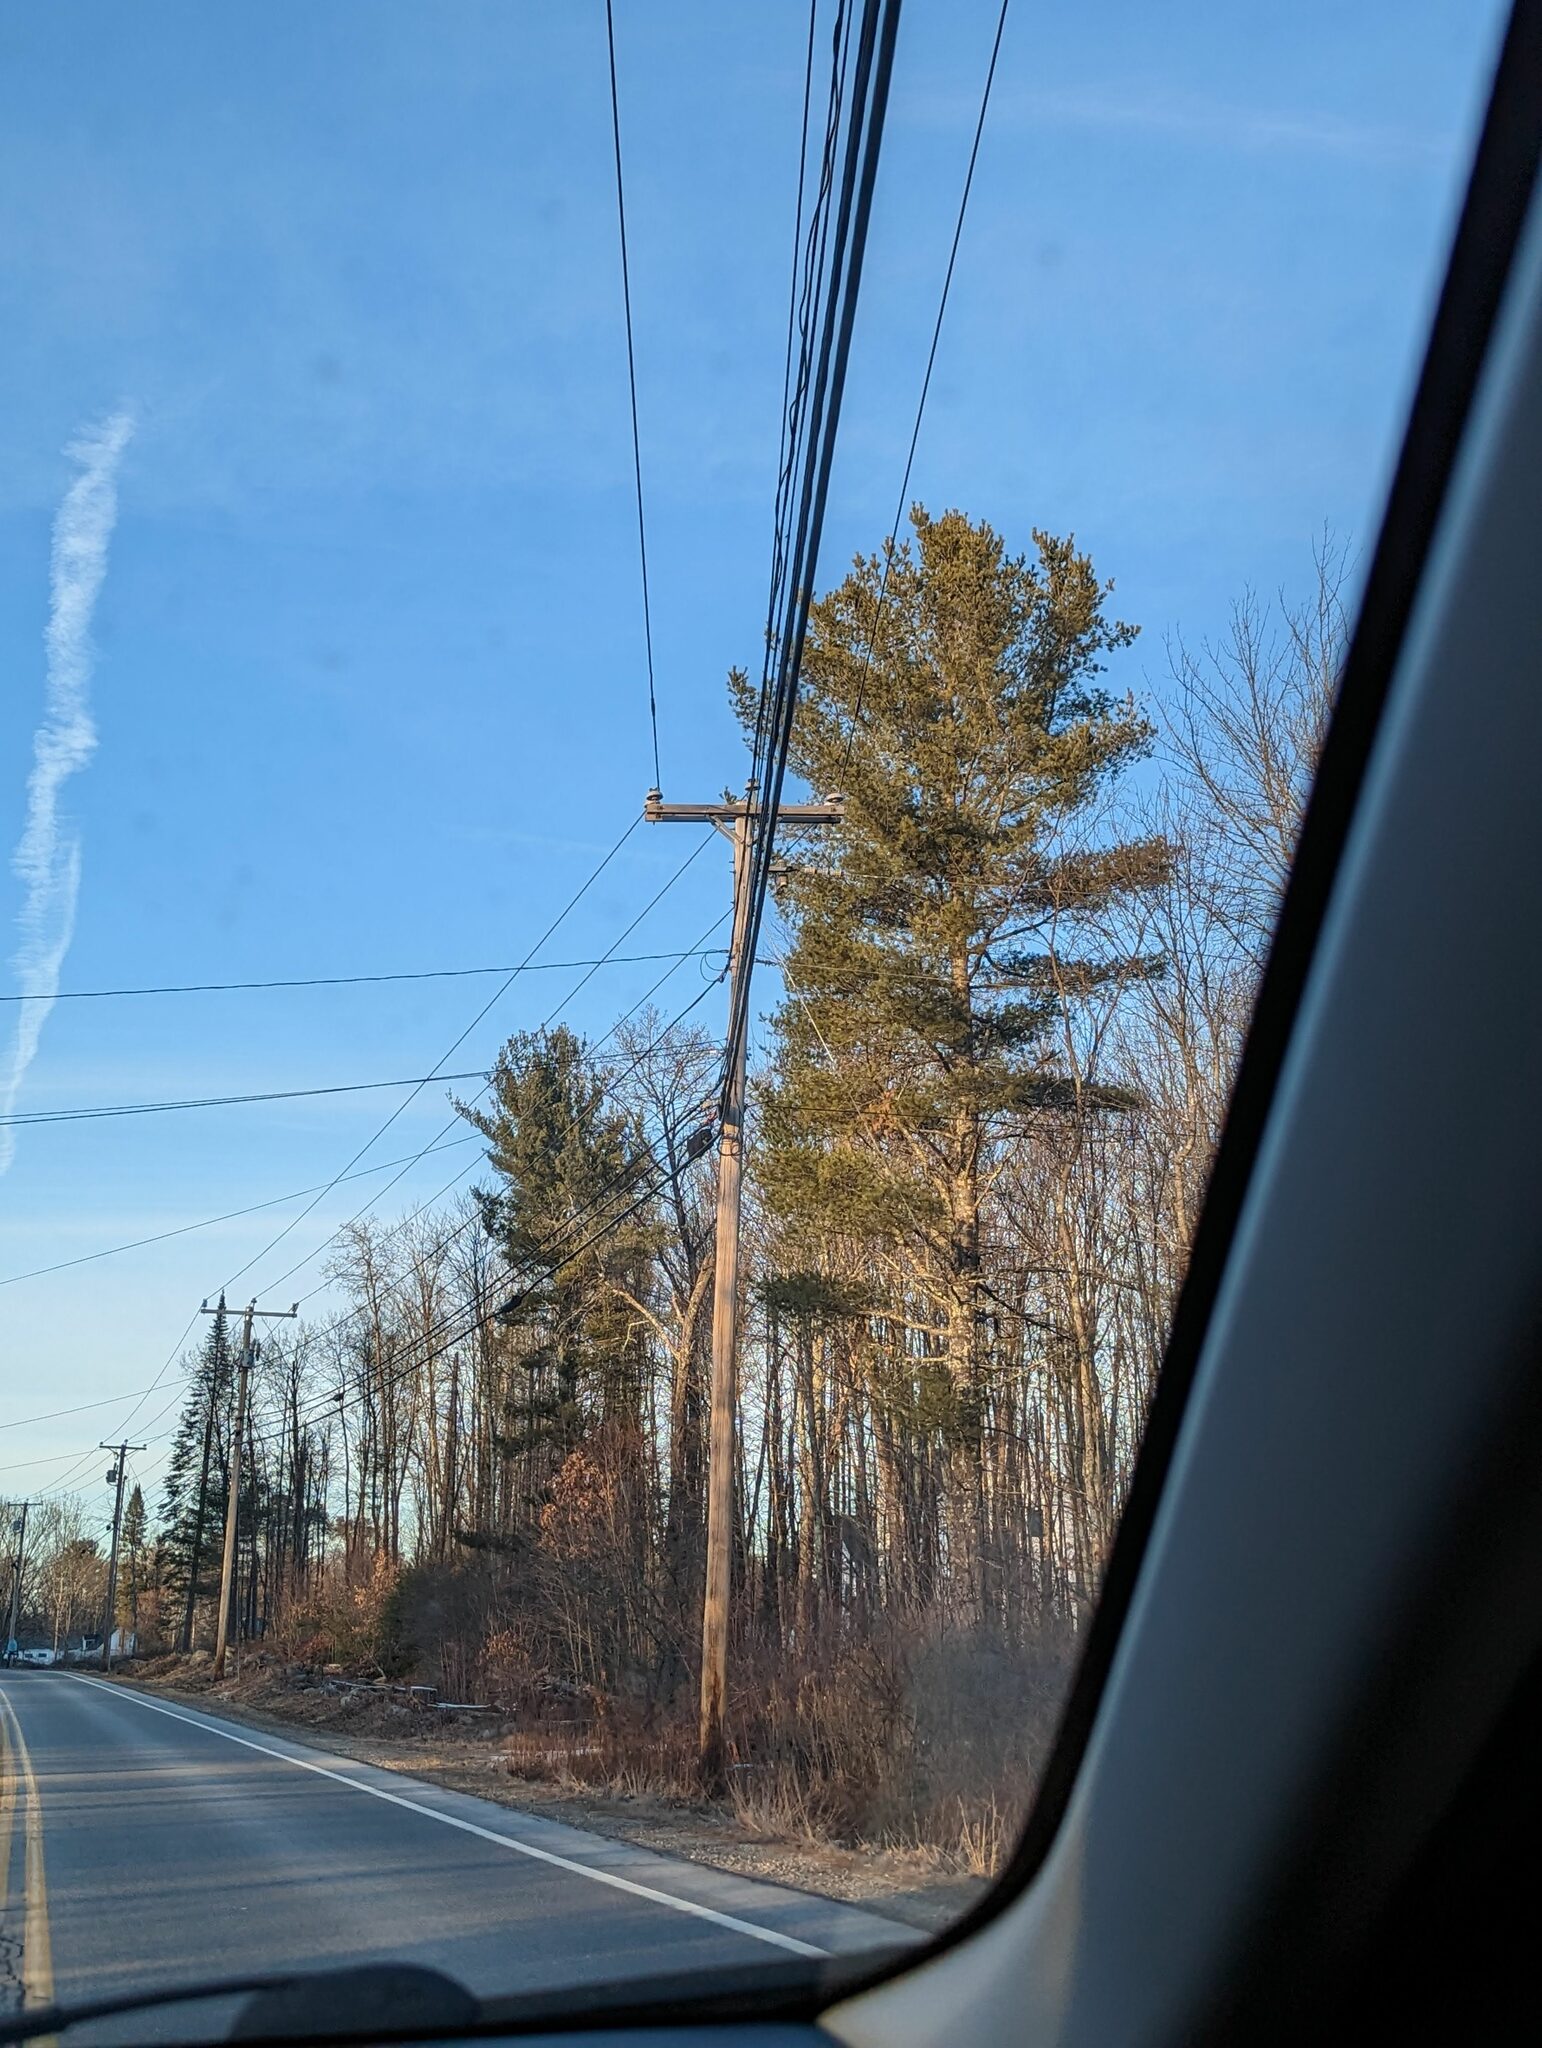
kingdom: Plantae
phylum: Tracheophyta
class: Pinopsida
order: Pinales
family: Pinaceae
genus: Pinus
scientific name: Pinus strobus
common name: Weymouth pine
